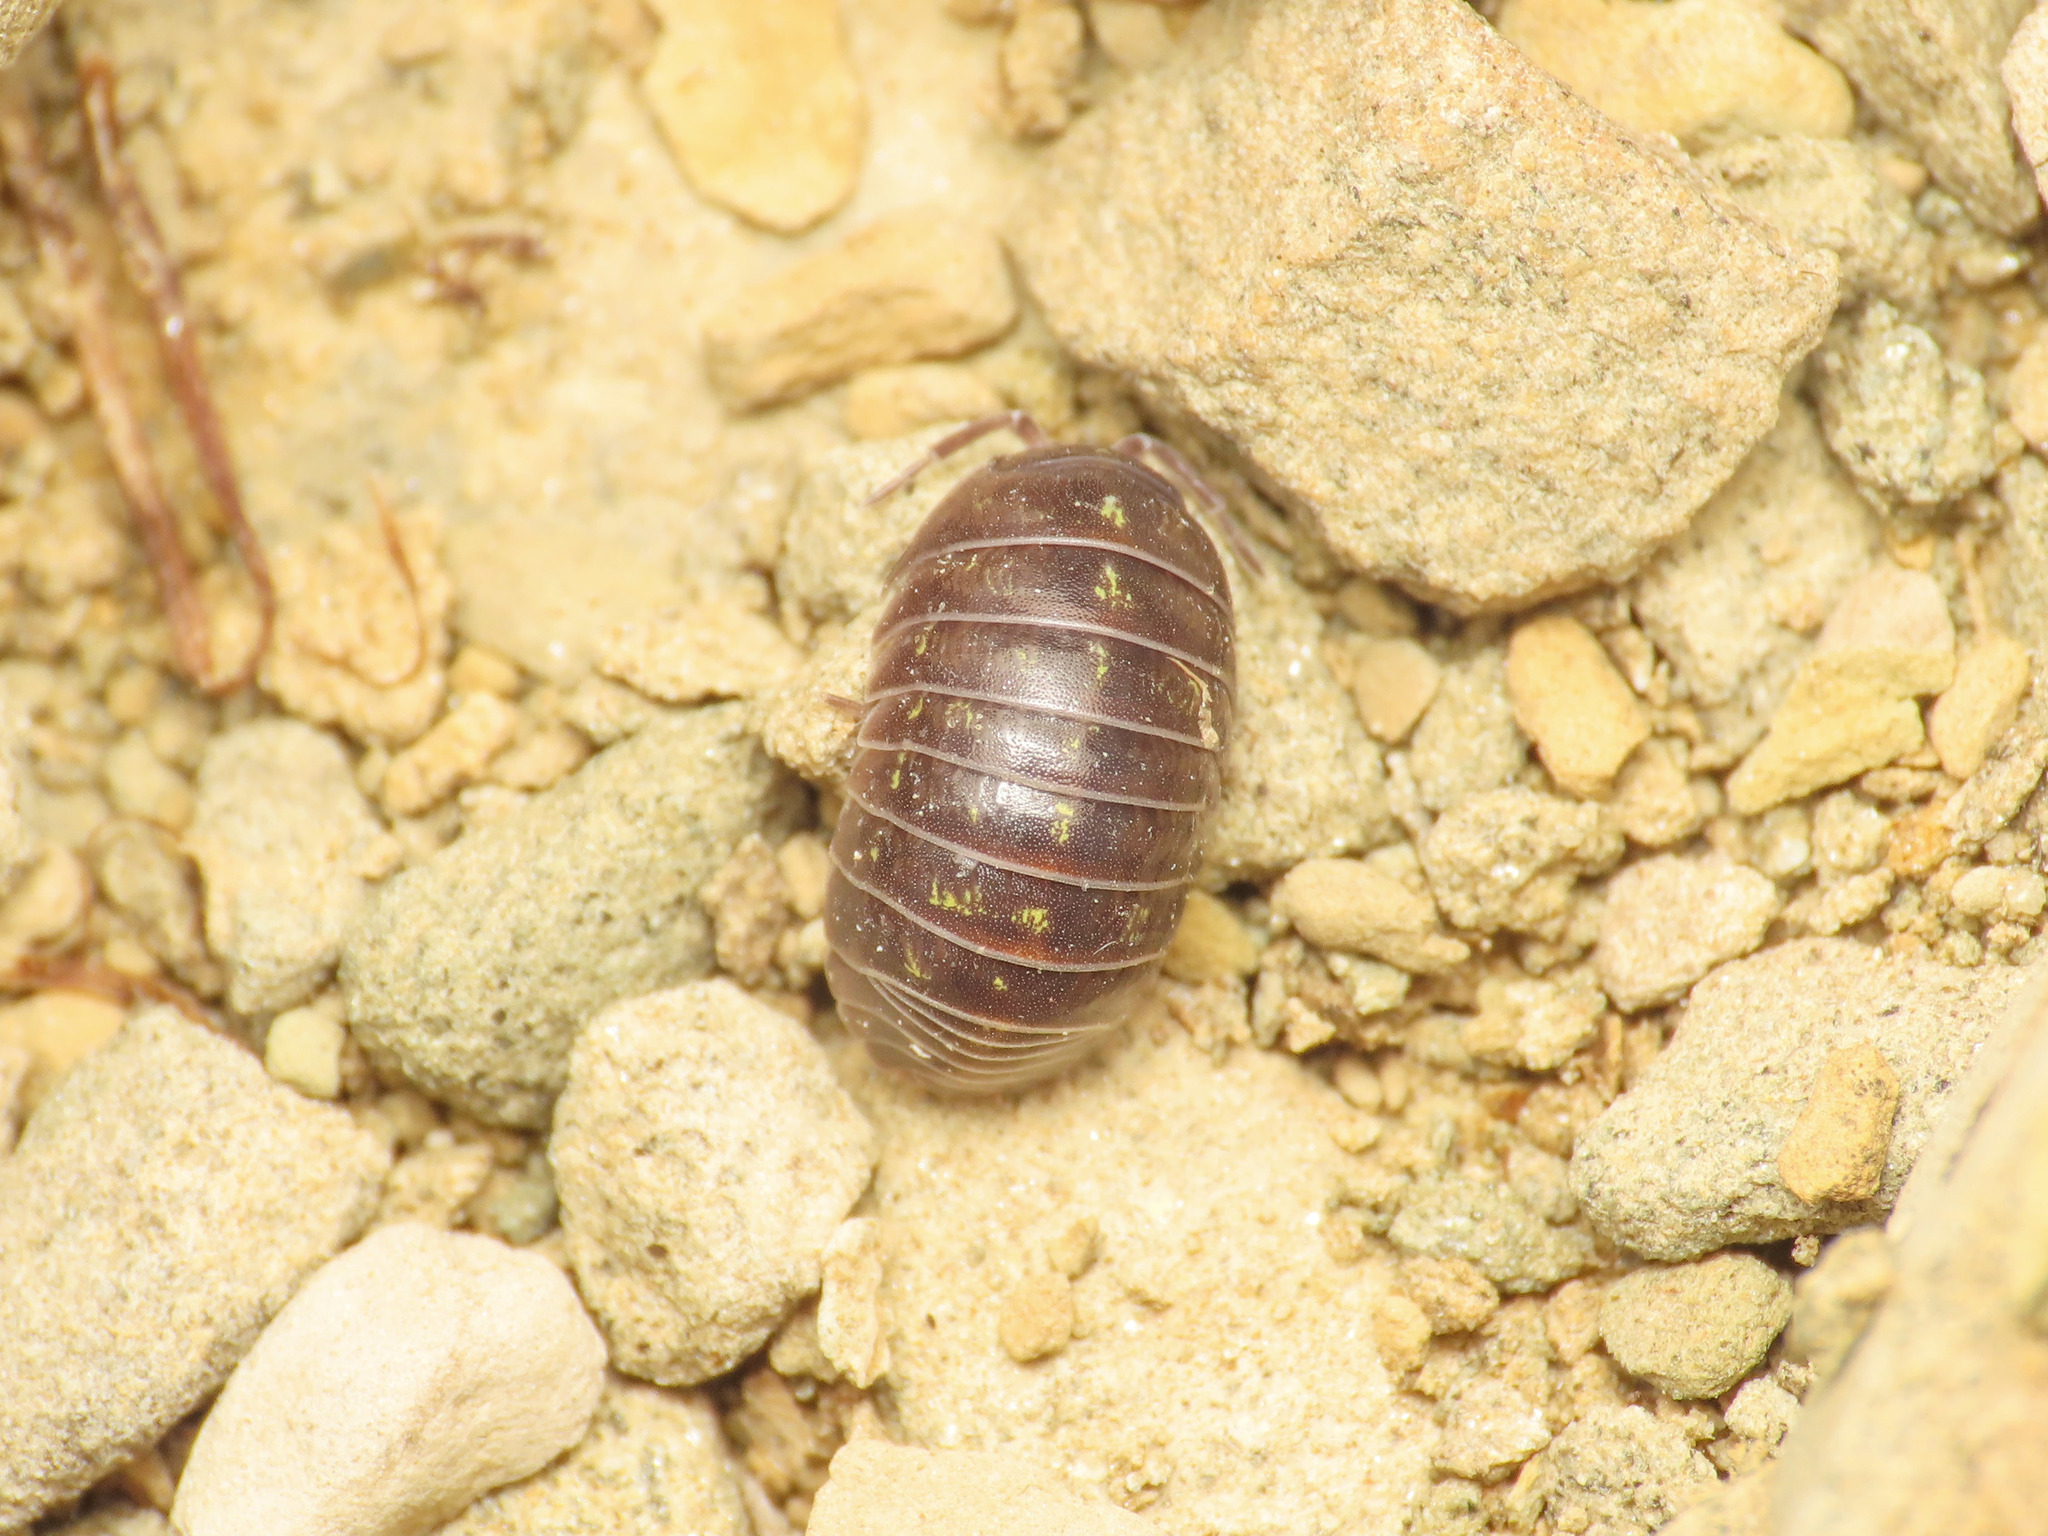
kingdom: Animalia
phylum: Arthropoda
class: Malacostraca
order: Isopoda
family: Armadillidiidae
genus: Armadillidium
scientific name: Armadillidium vulgare
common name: Common pill woodlouse
